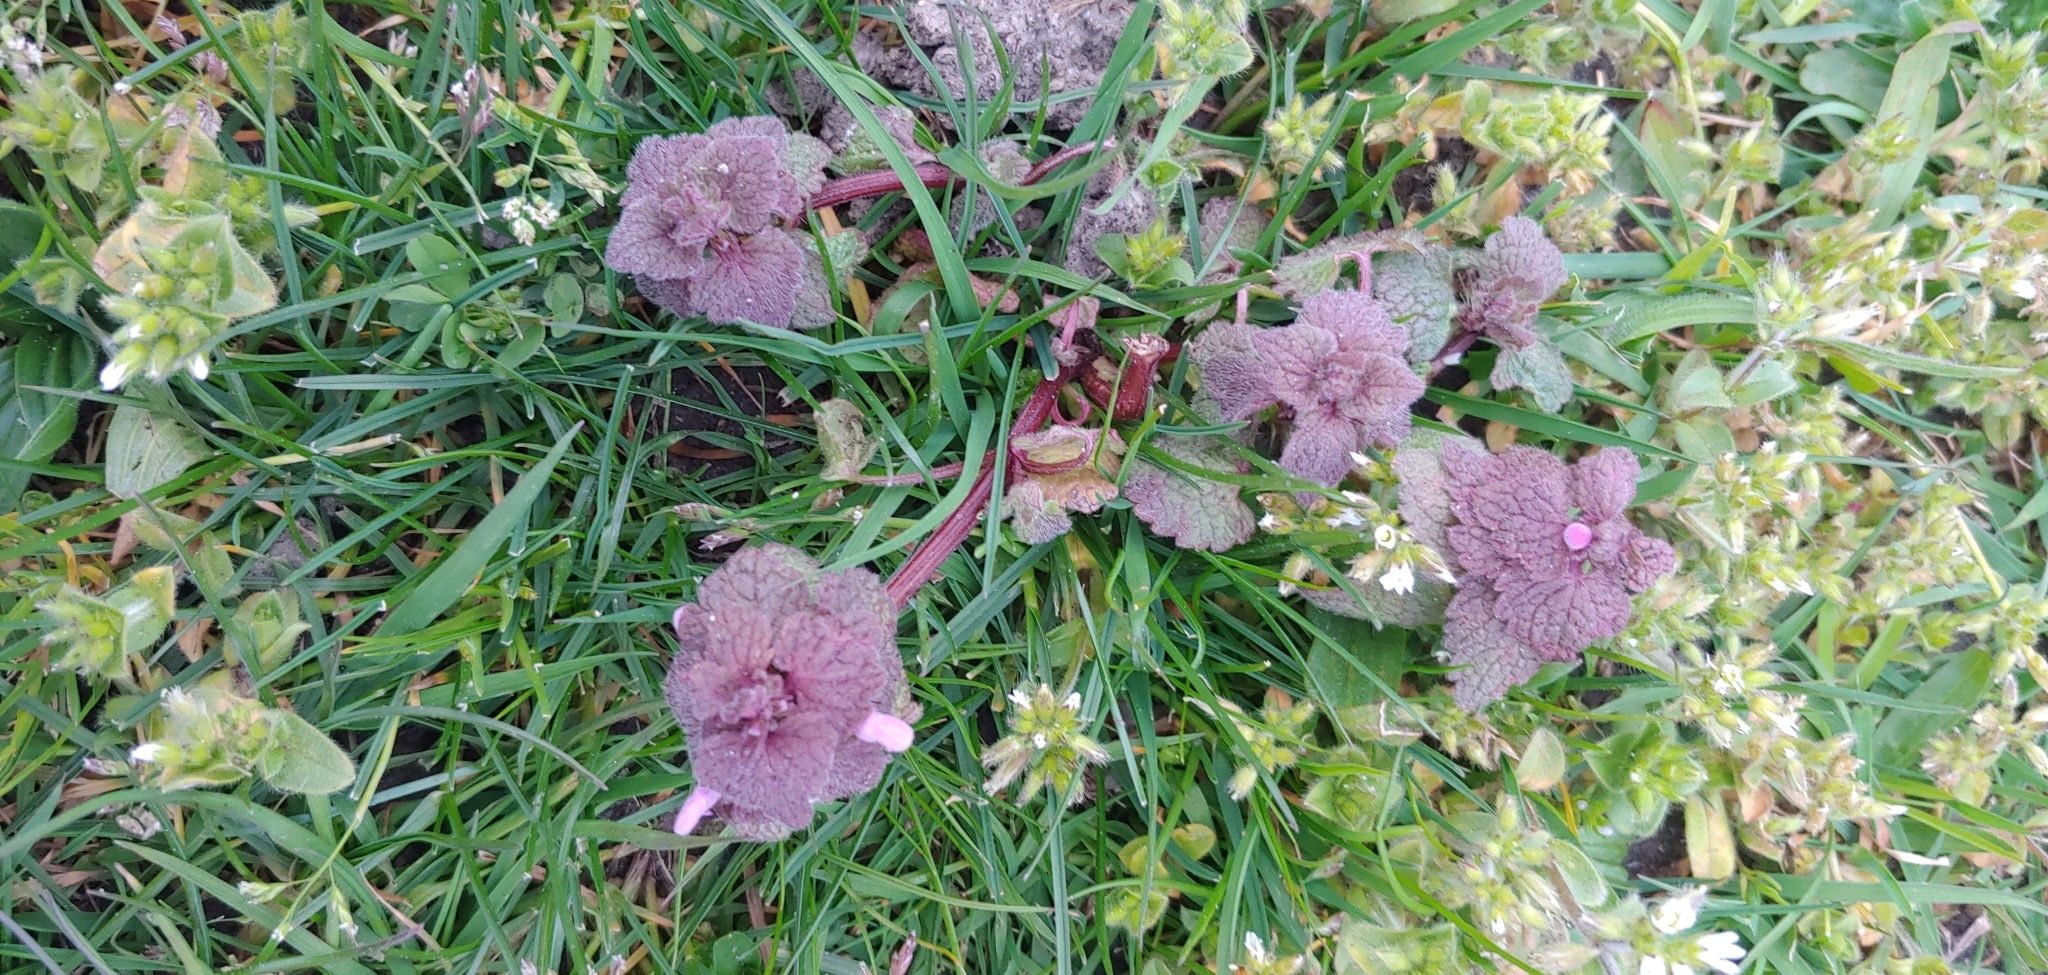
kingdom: Plantae
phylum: Tracheophyta
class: Magnoliopsida
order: Lamiales
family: Lamiaceae
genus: Lamium
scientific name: Lamium purpureum
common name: Red dead-nettle
